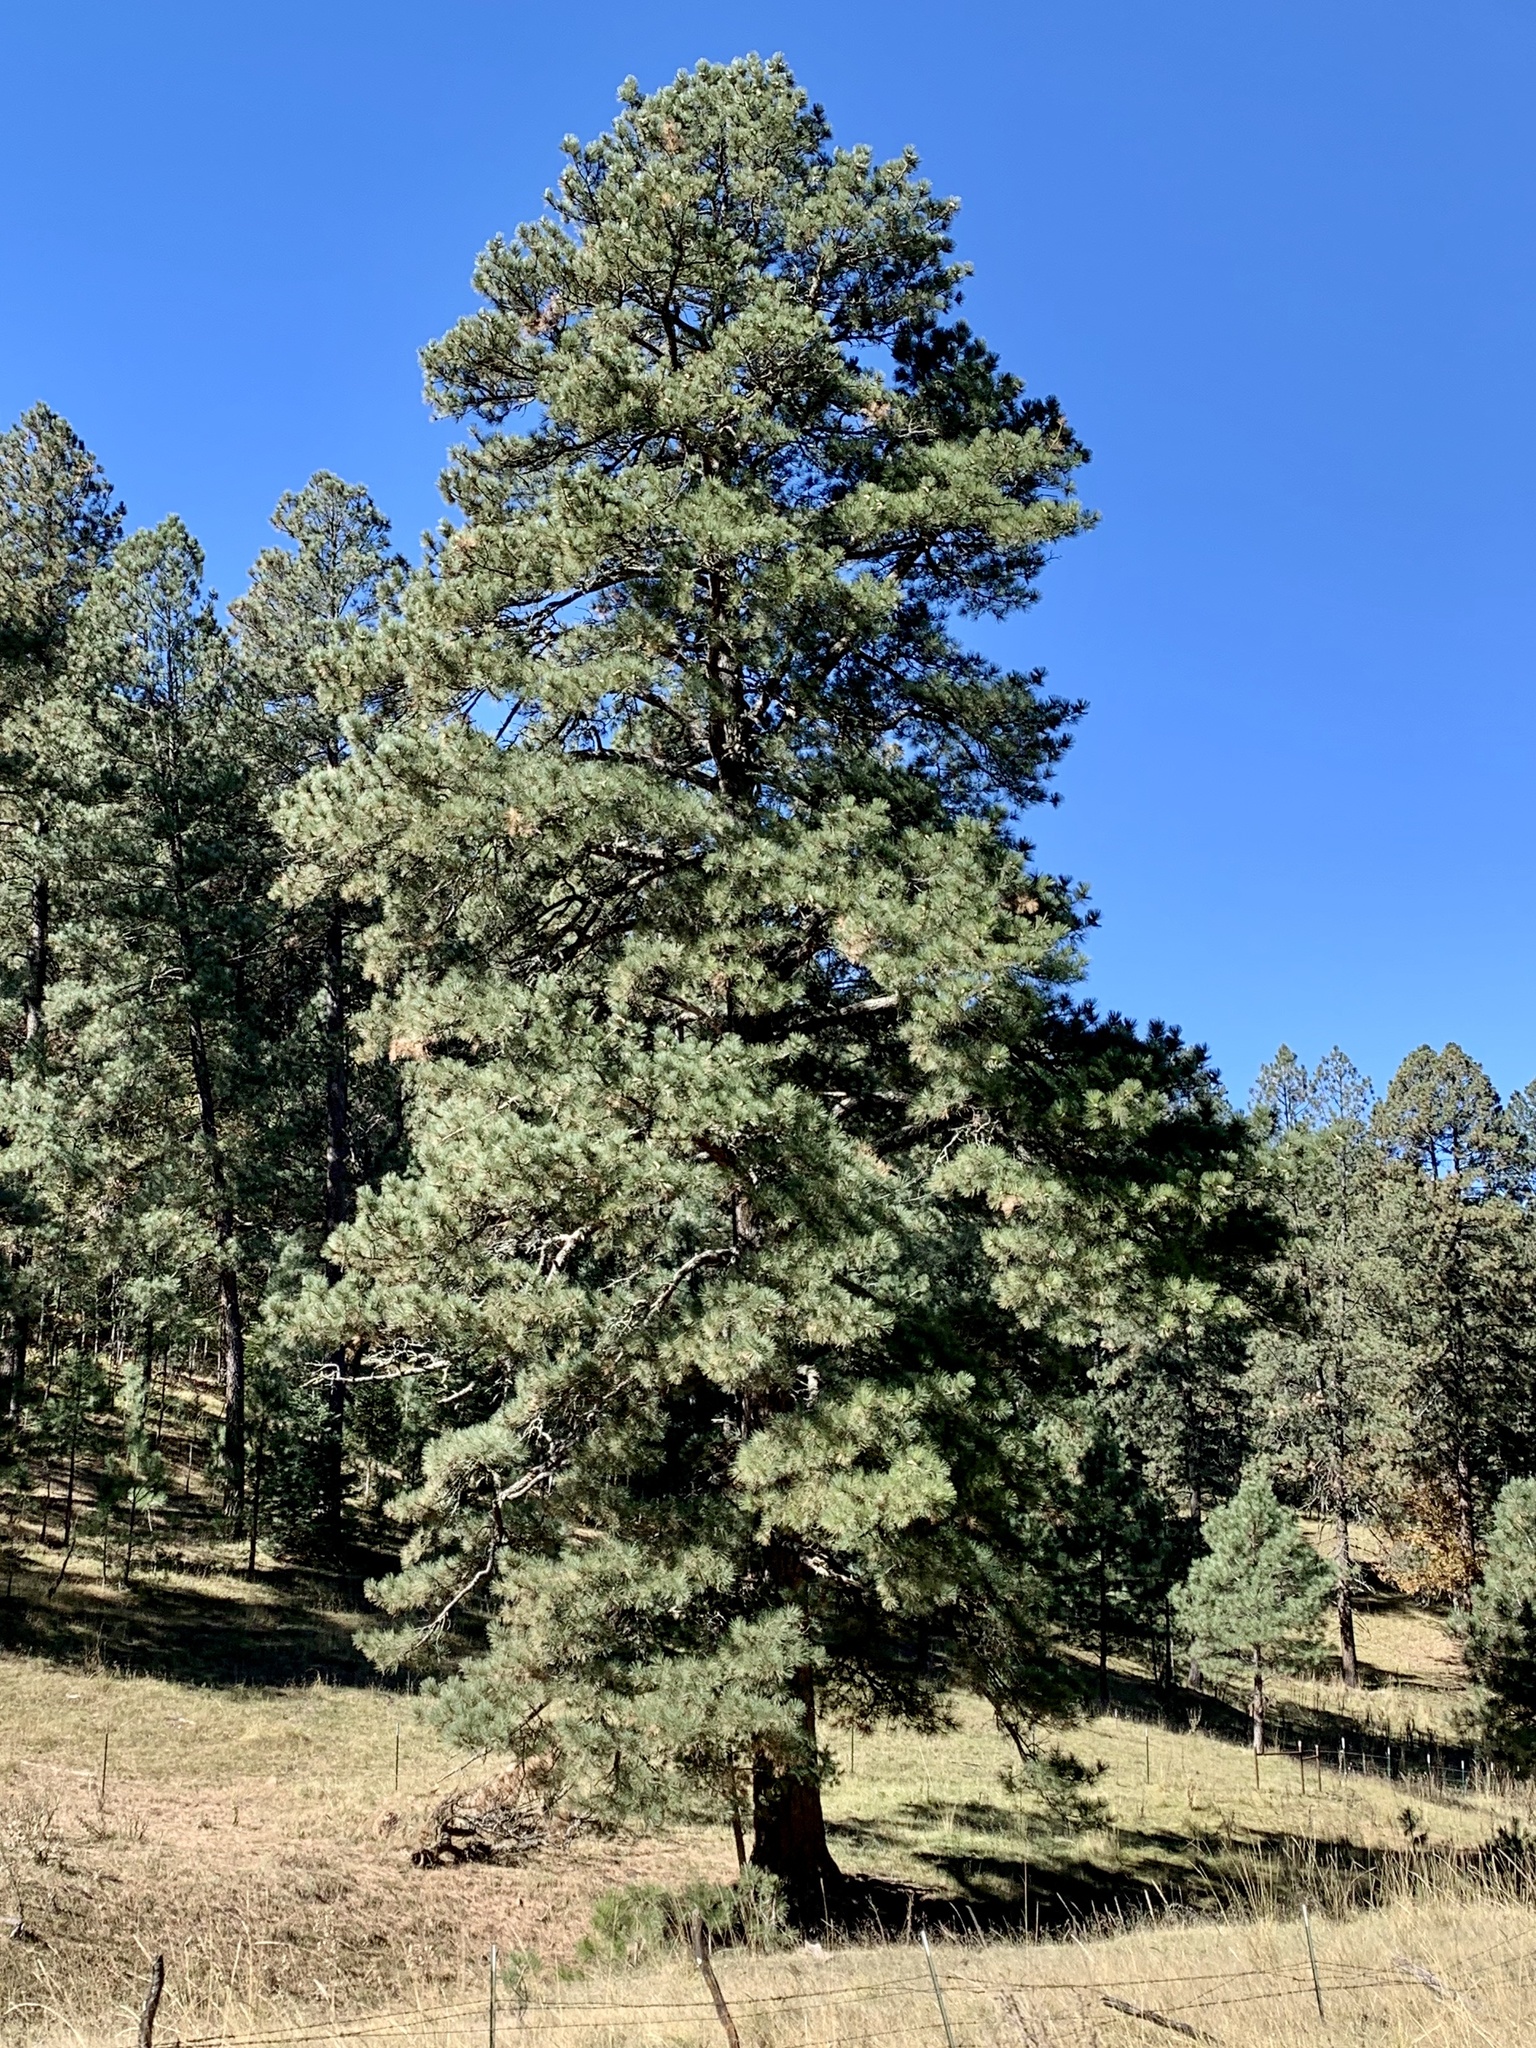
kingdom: Plantae
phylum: Tracheophyta
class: Pinopsida
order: Pinales
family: Pinaceae
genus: Pinus
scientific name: Pinus ponderosa
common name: Western yellow-pine
